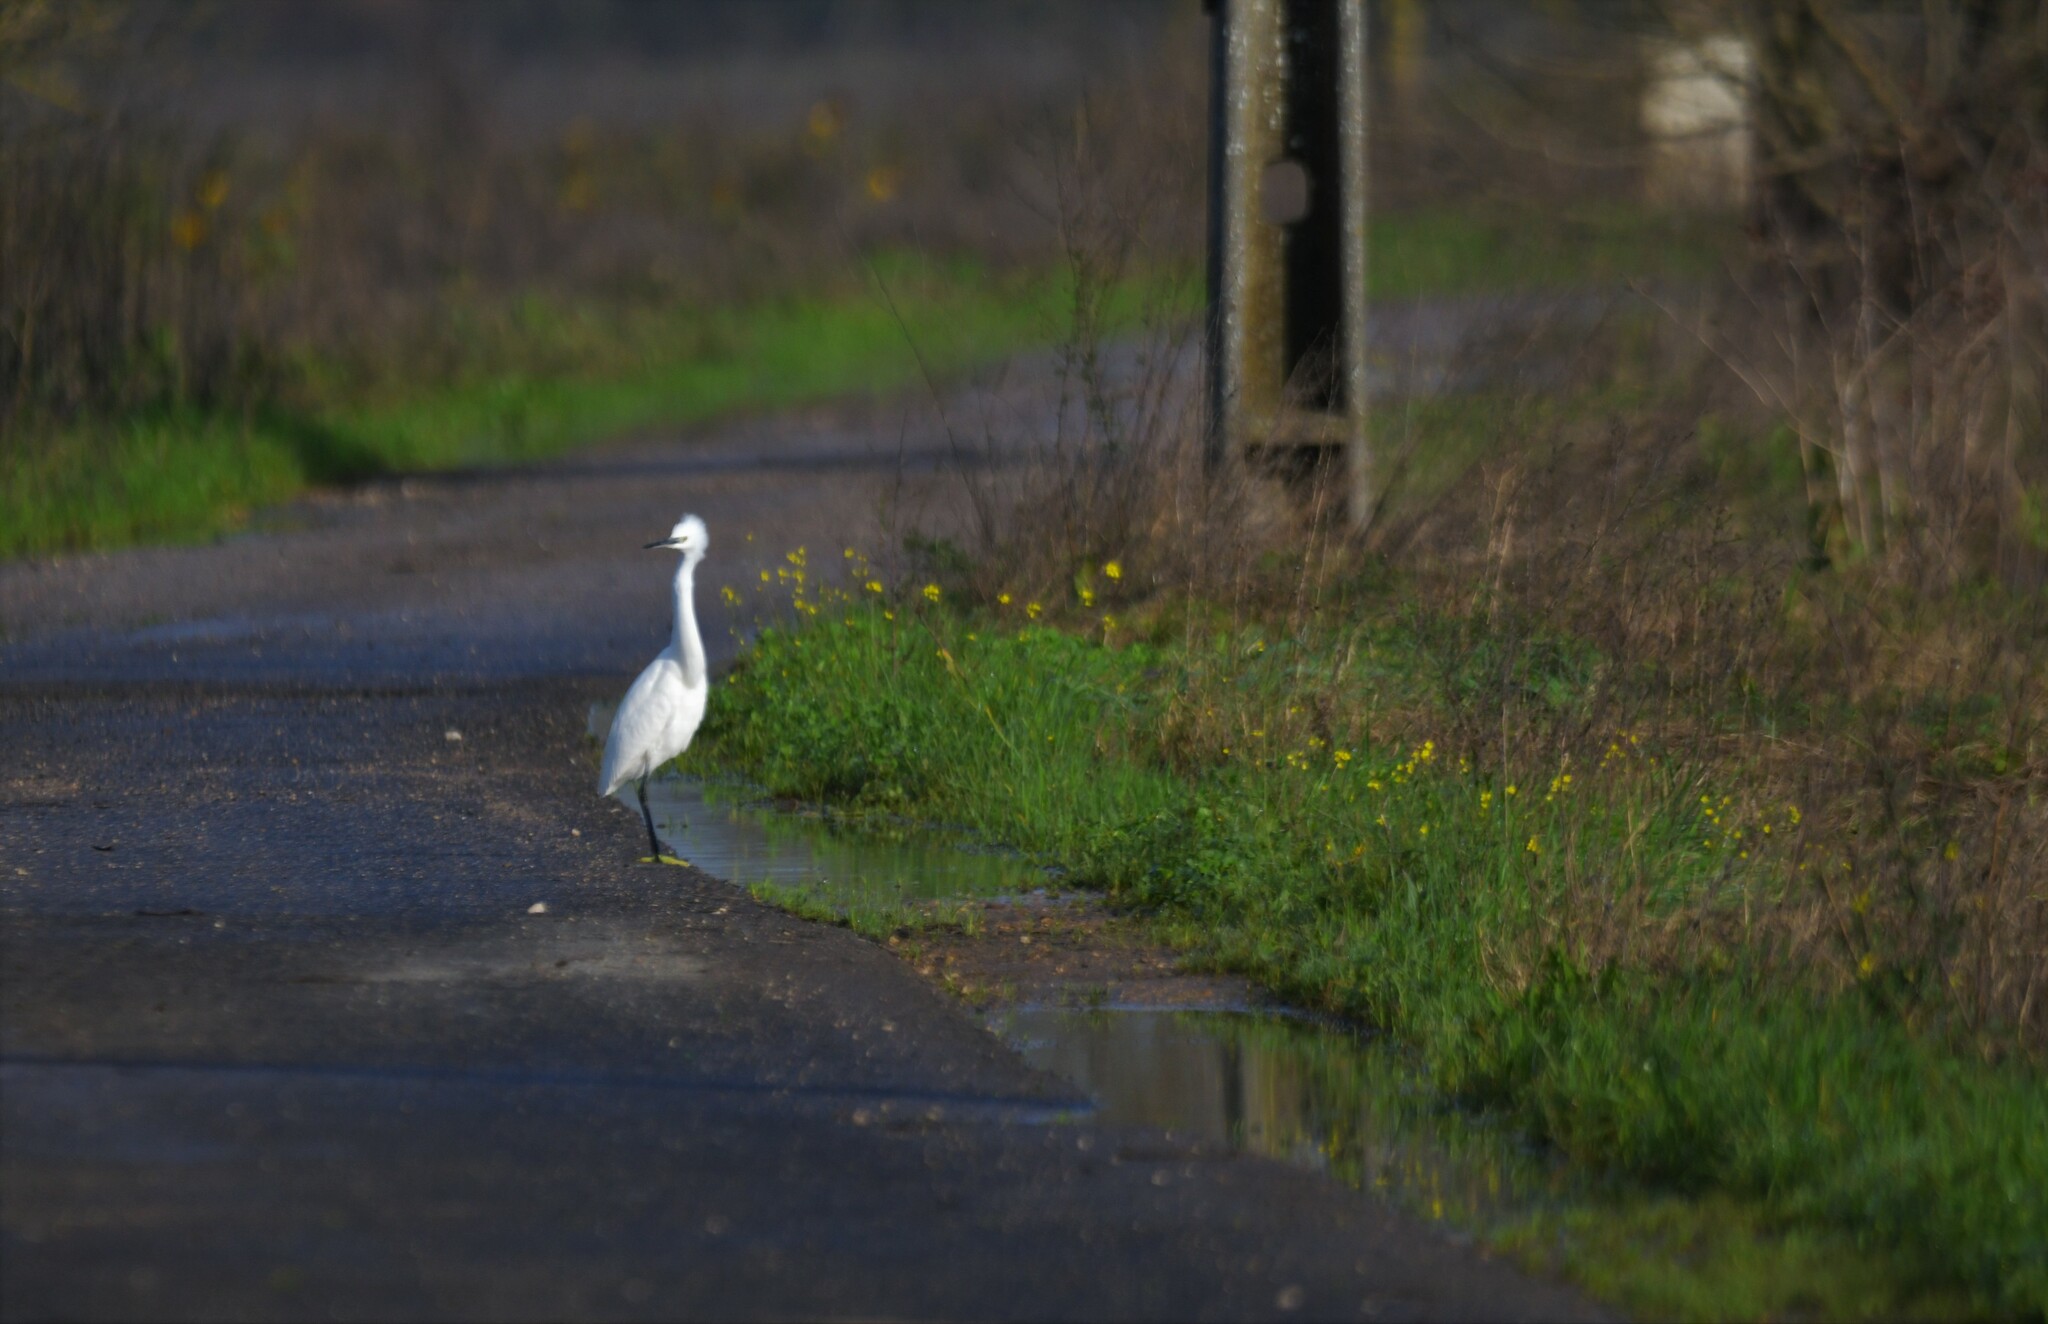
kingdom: Animalia
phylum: Chordata
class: Aves
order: Pelecaniformes
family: Ardeidae
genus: Egretta
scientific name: Egretta garzetta
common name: Little egret
